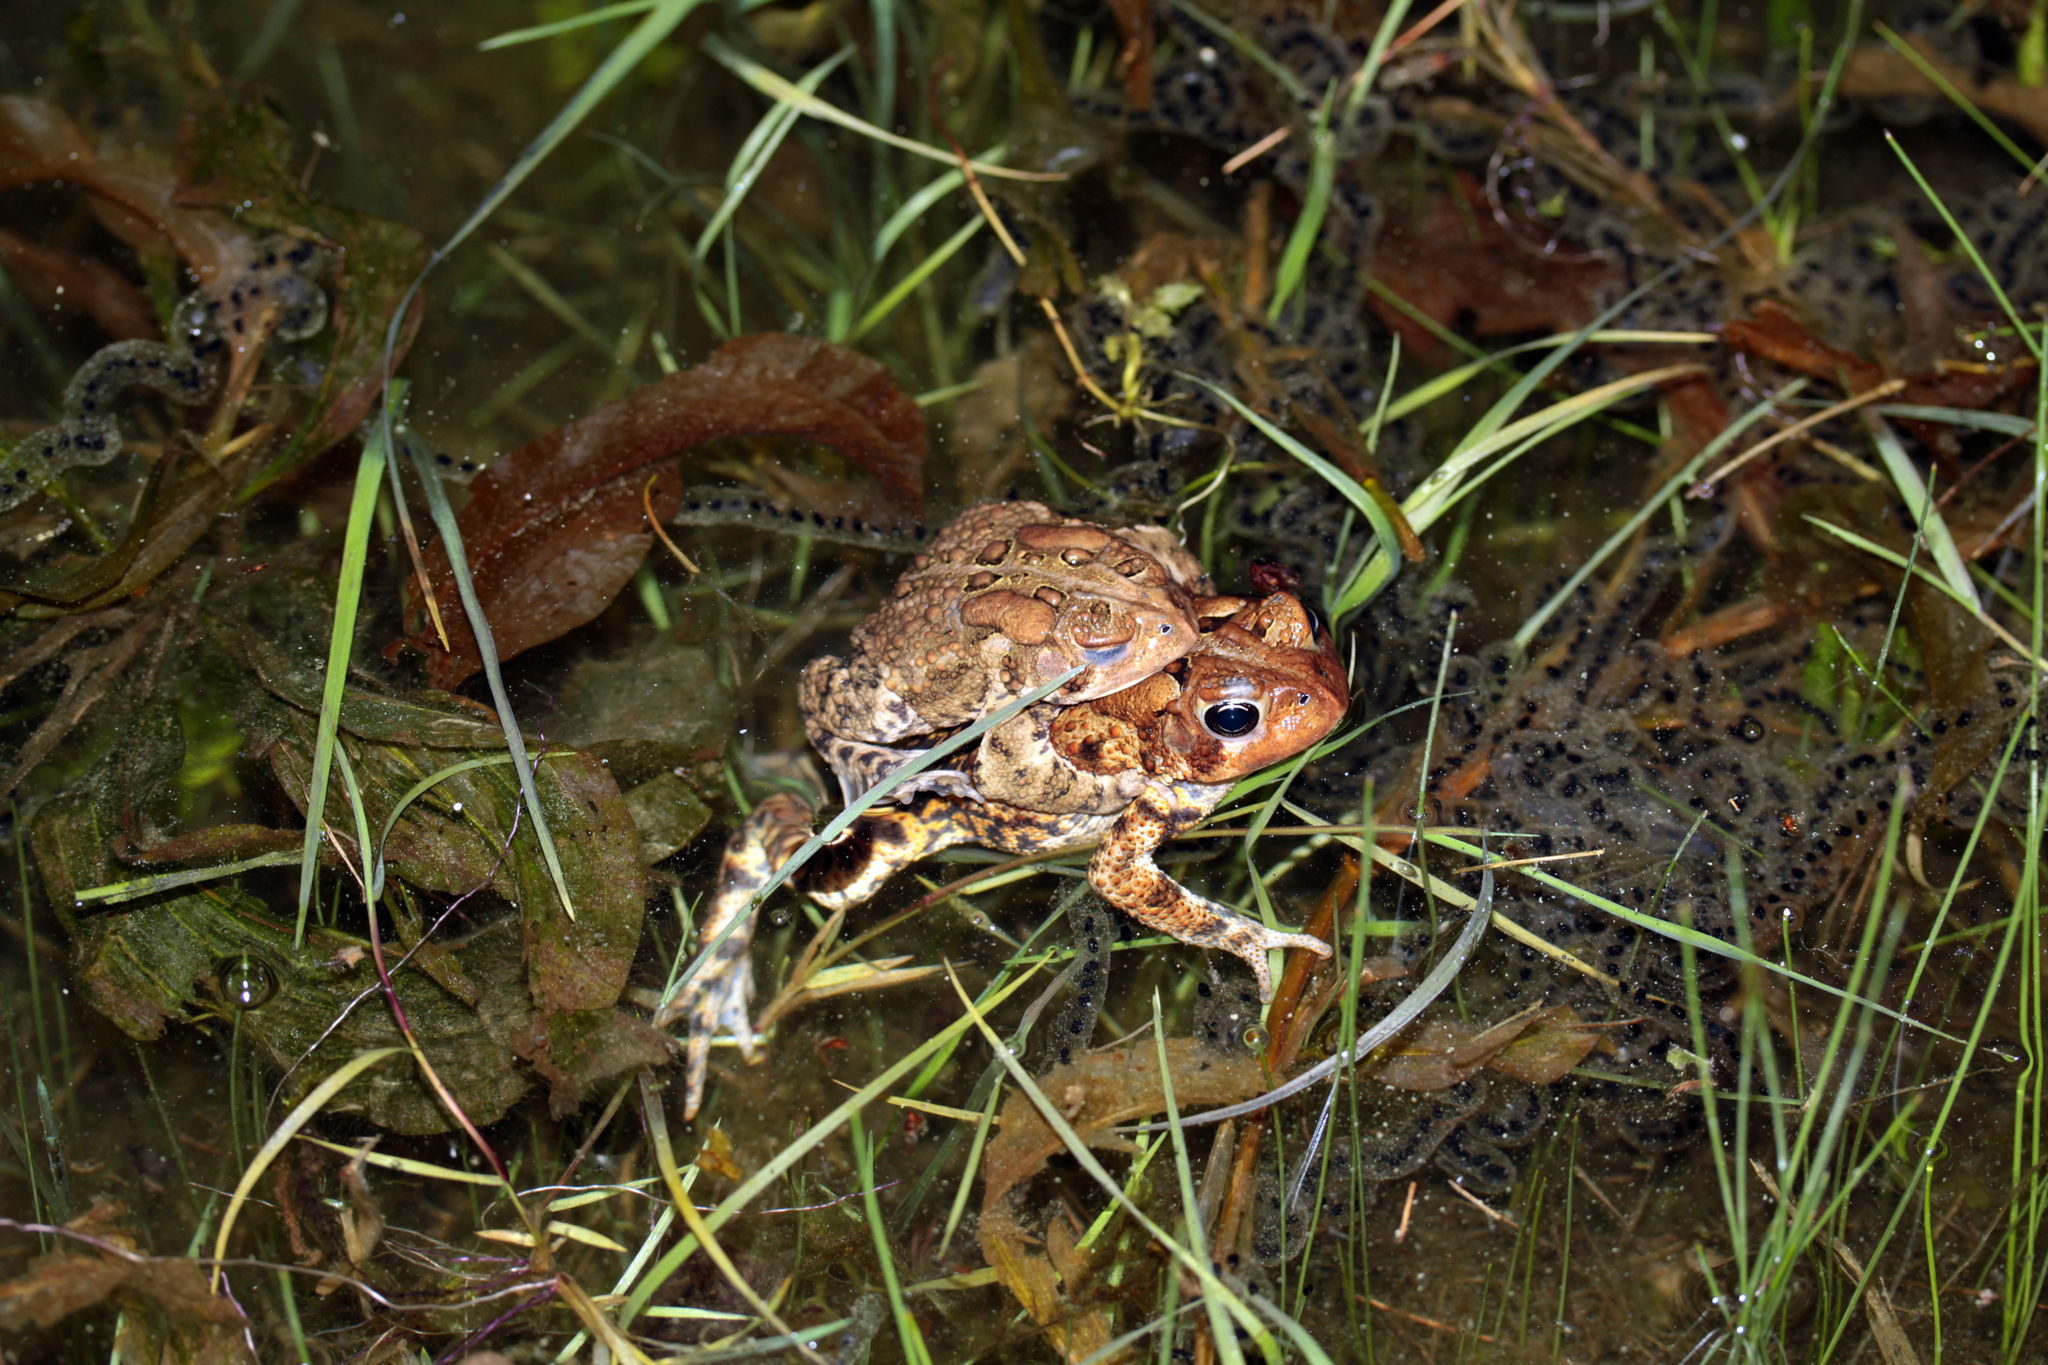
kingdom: Animalia
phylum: Chordata
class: Amphibia
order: Anura
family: Bufonidae
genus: Anaxyrus
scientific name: Anaxyrus americanus
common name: American toad
